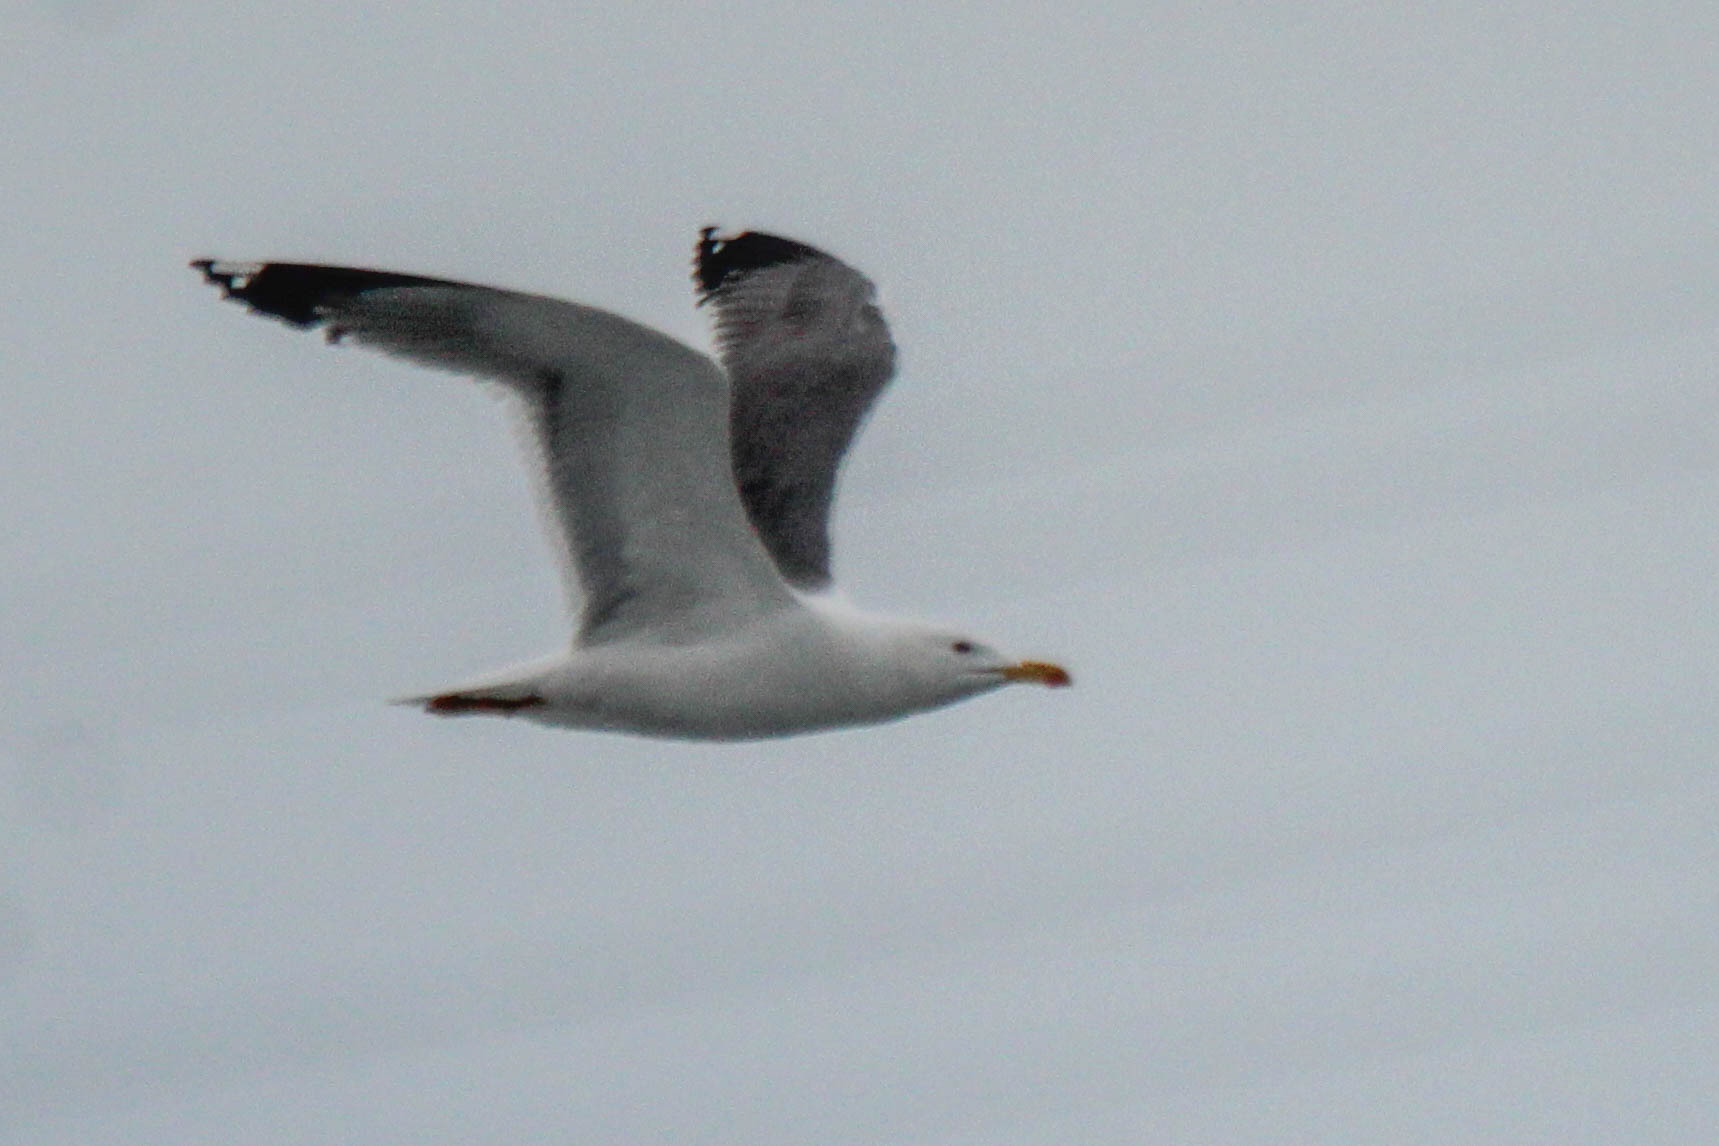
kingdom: Animalia
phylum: Chordata
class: Aves
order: Charadriiformes
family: Laridae
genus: Larus
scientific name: Larus fuscus
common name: Lesser black-backed gull
